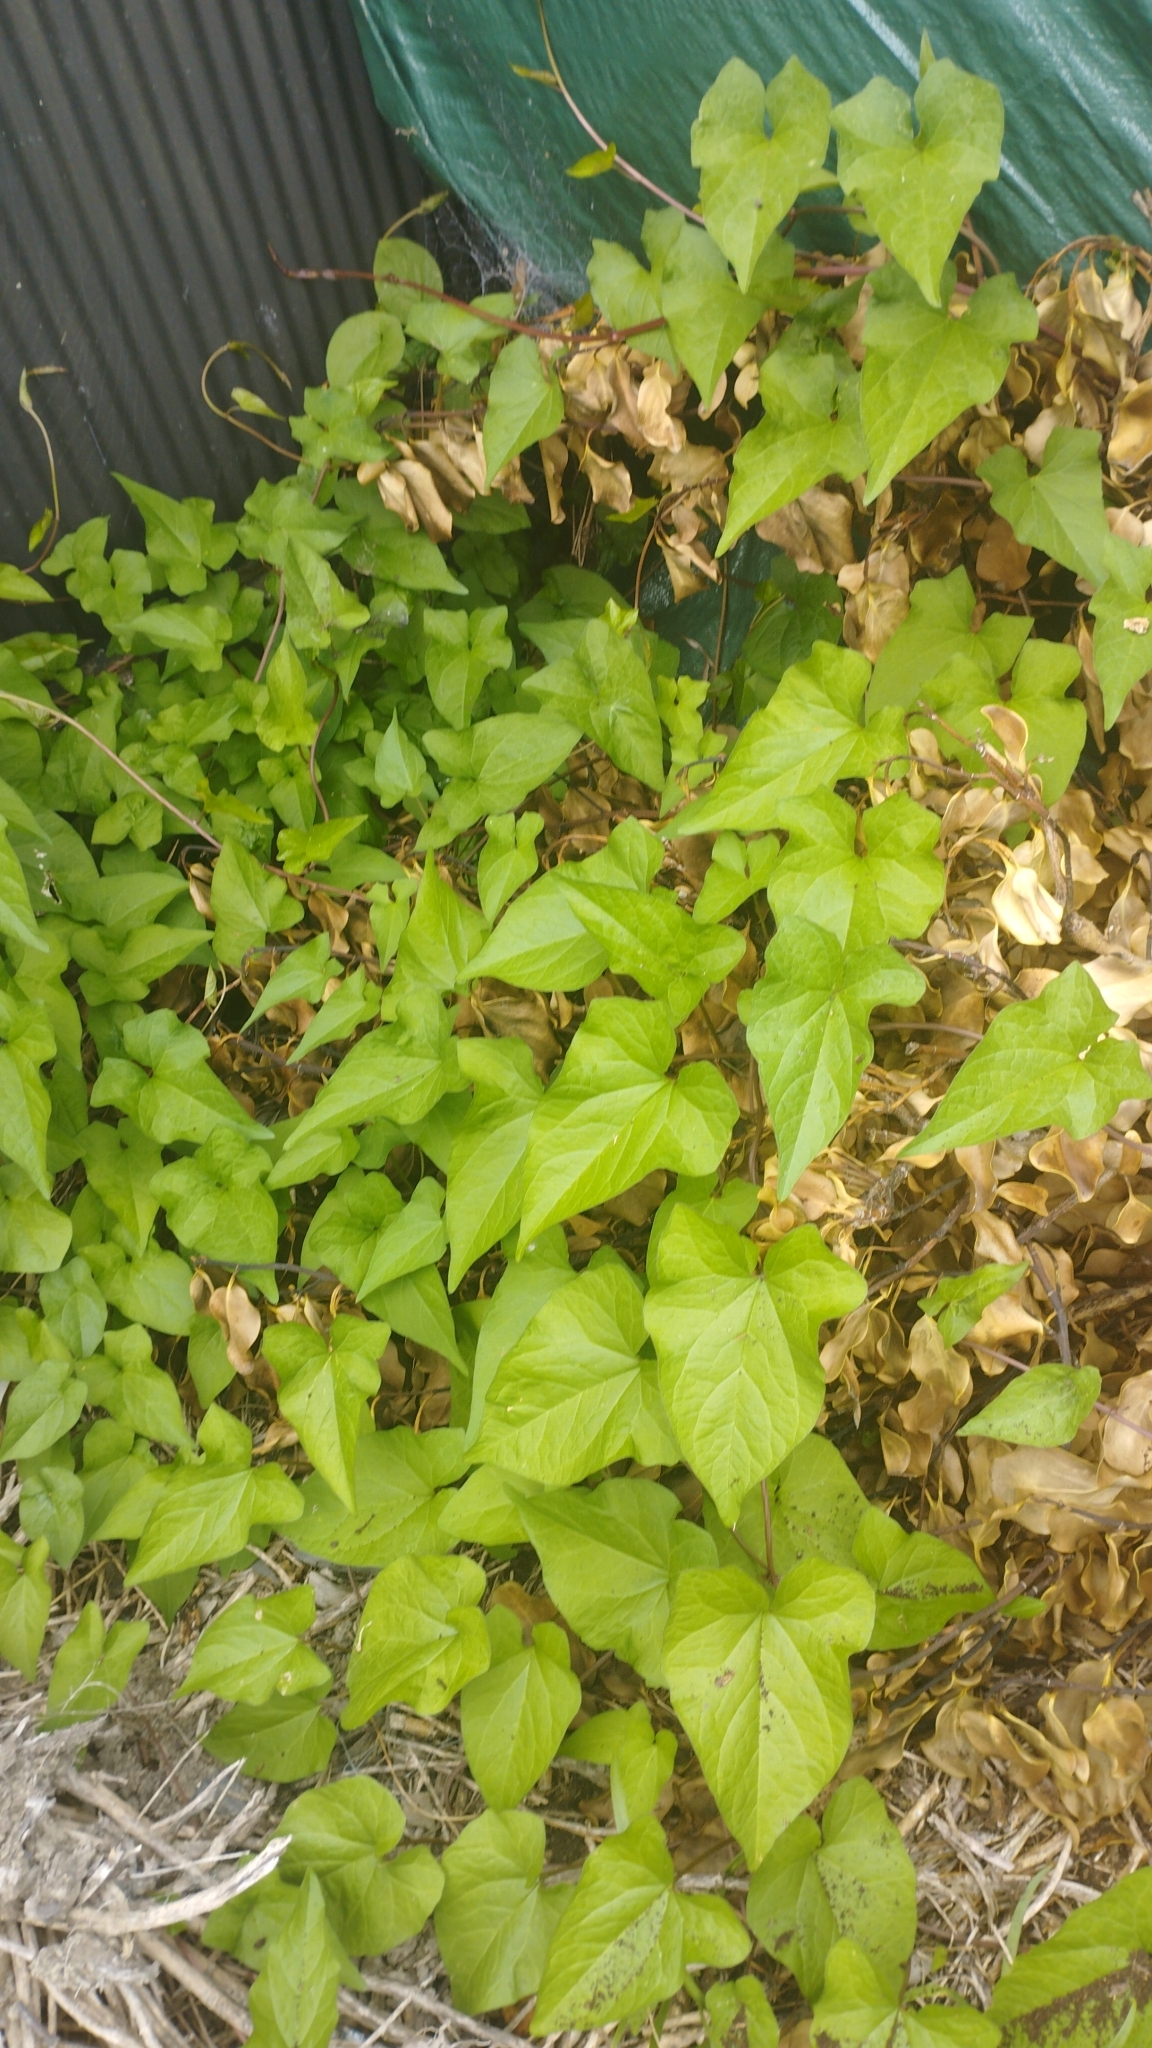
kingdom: Plantae
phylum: Tracheophyta
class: Magnoliopsida
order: Solanales
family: Convolvulaceae
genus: Calystegia
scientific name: Calystegia silvatica
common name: Large bindweed
